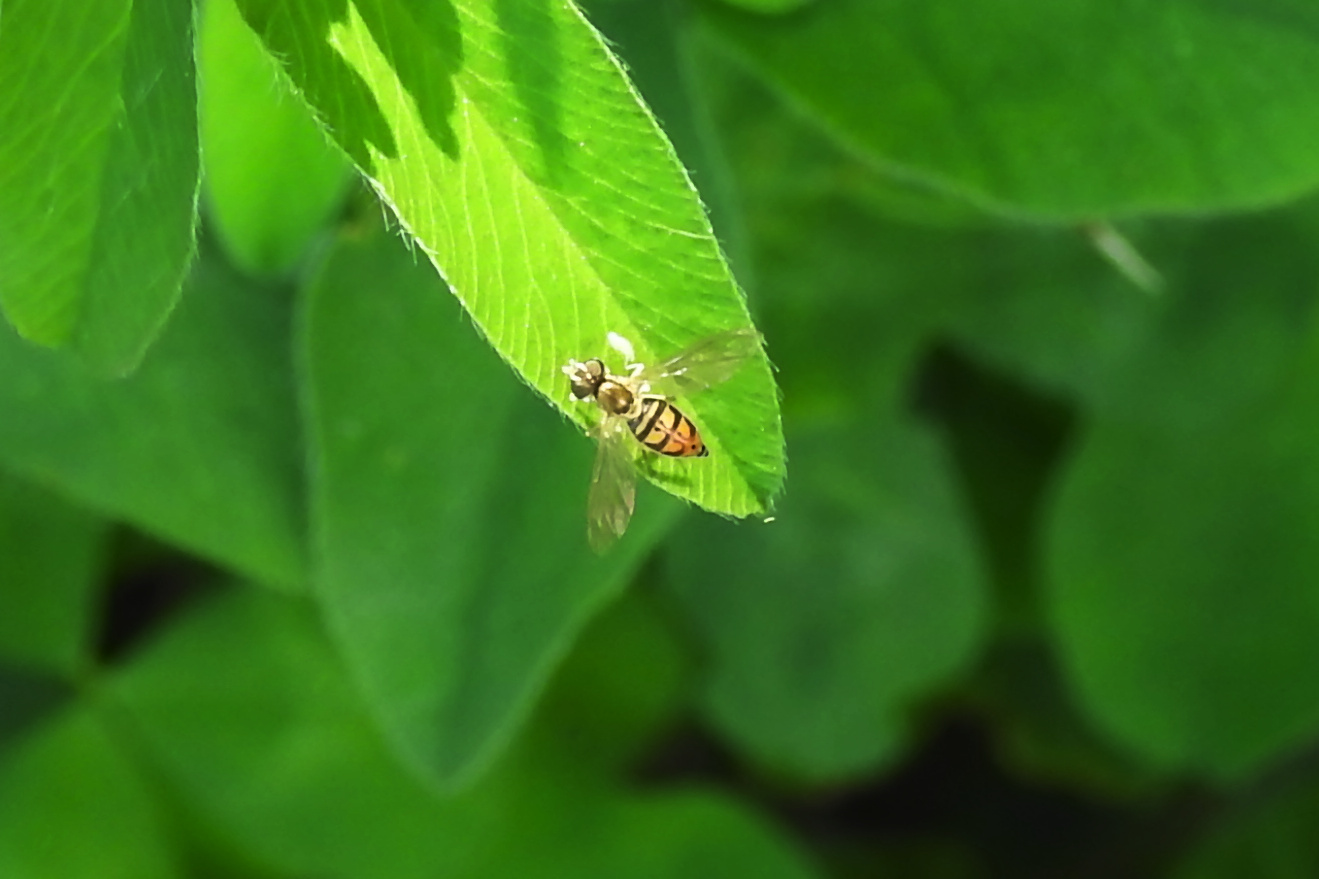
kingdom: Animalia
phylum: Arthropoda
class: Insecta
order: Diptera
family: Syrphidae
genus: Toxomerus
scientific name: Toxomerus marginatus
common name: Syrphid fly
